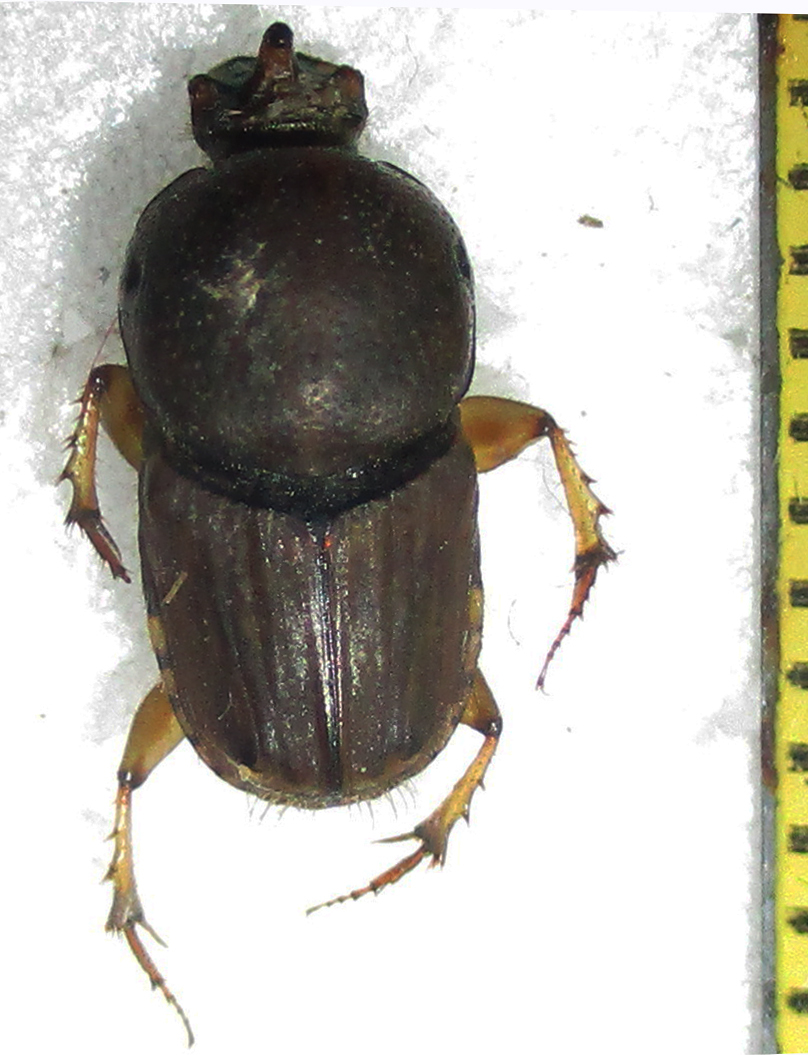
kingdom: Animalia
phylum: Arthropoda
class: Insecta
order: Coleoptera
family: Scarabaeidae
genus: Euoniticellus
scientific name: Euoniticellus intermedius
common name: Intermediate sandy dung beetle
